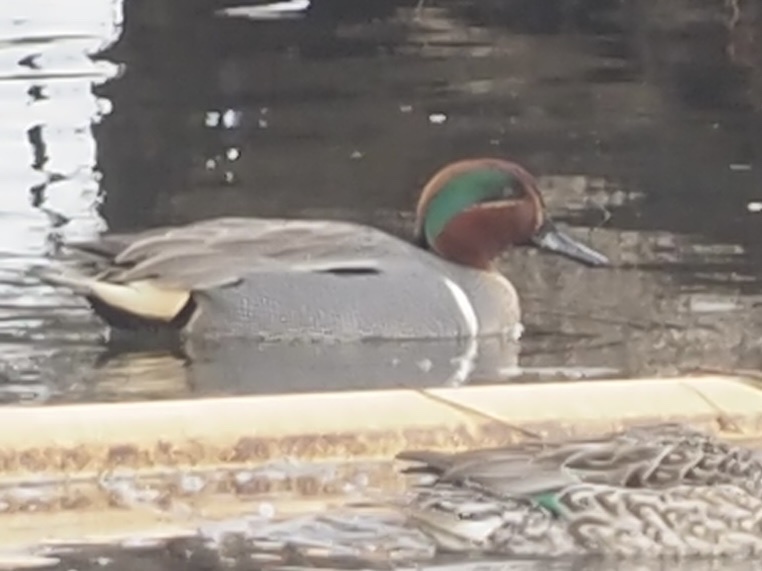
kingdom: Animalia
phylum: Chordata
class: Aves
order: Anseriformes
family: Anatidae
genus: Anas
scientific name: Anas crecca
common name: Eurasian teal
